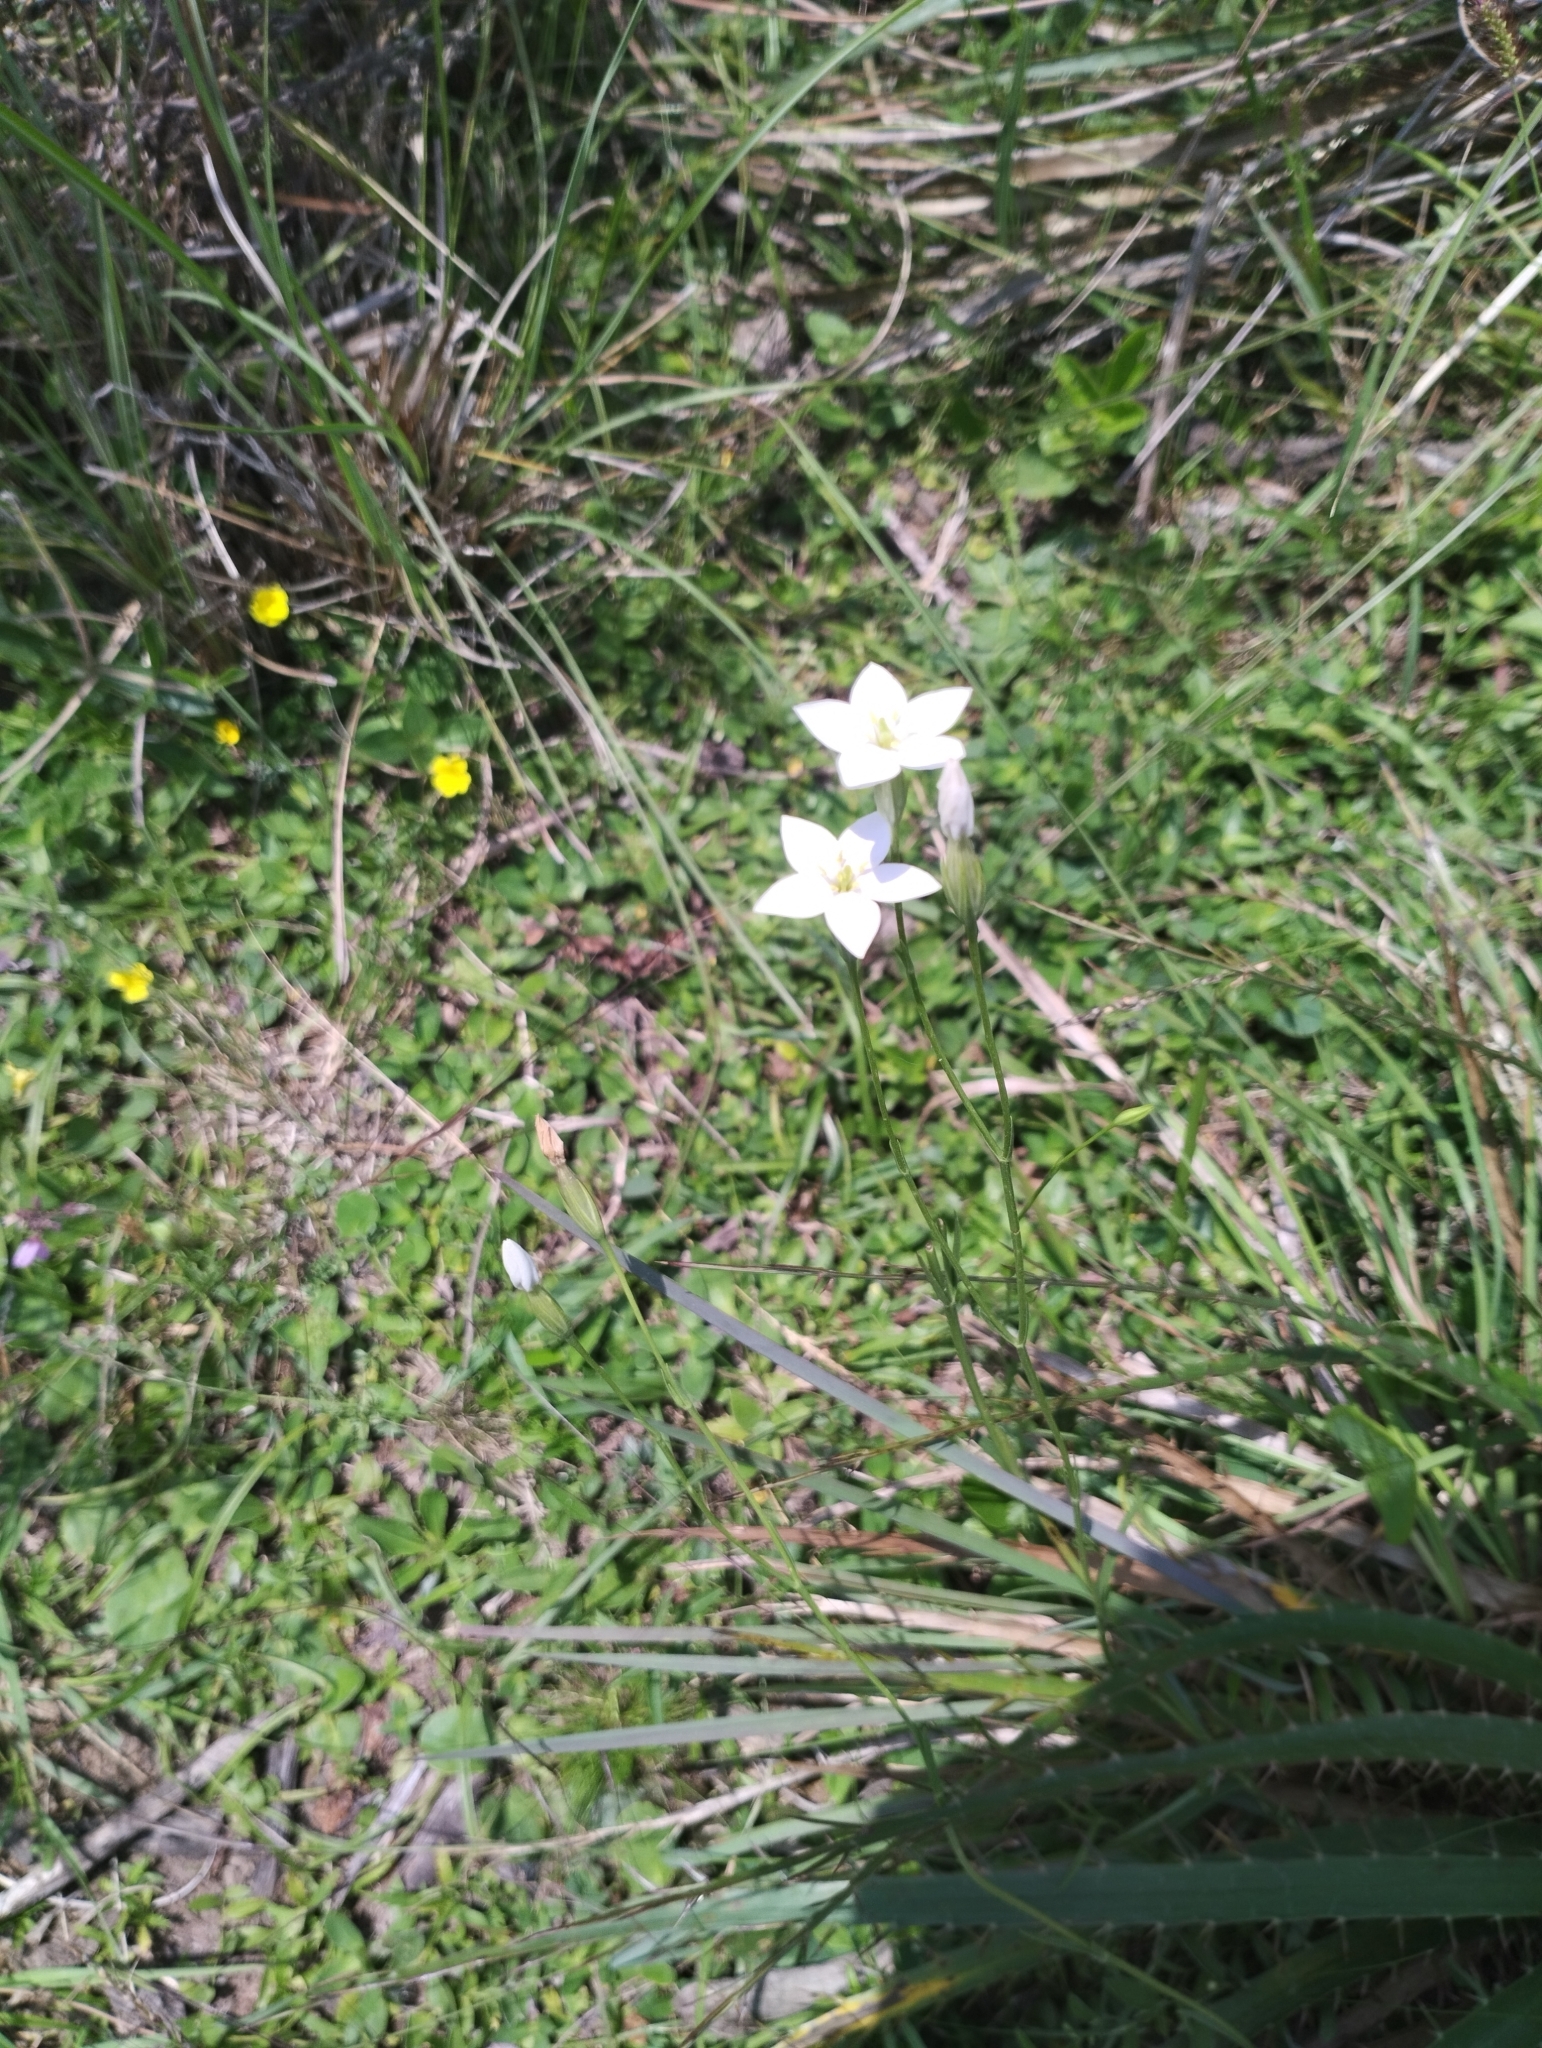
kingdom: Plantae
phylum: Tracheophyta
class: Magnoliopsida
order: Gentianales
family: Gentianaceae
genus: Zygostigma
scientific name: Zygostigma australe
